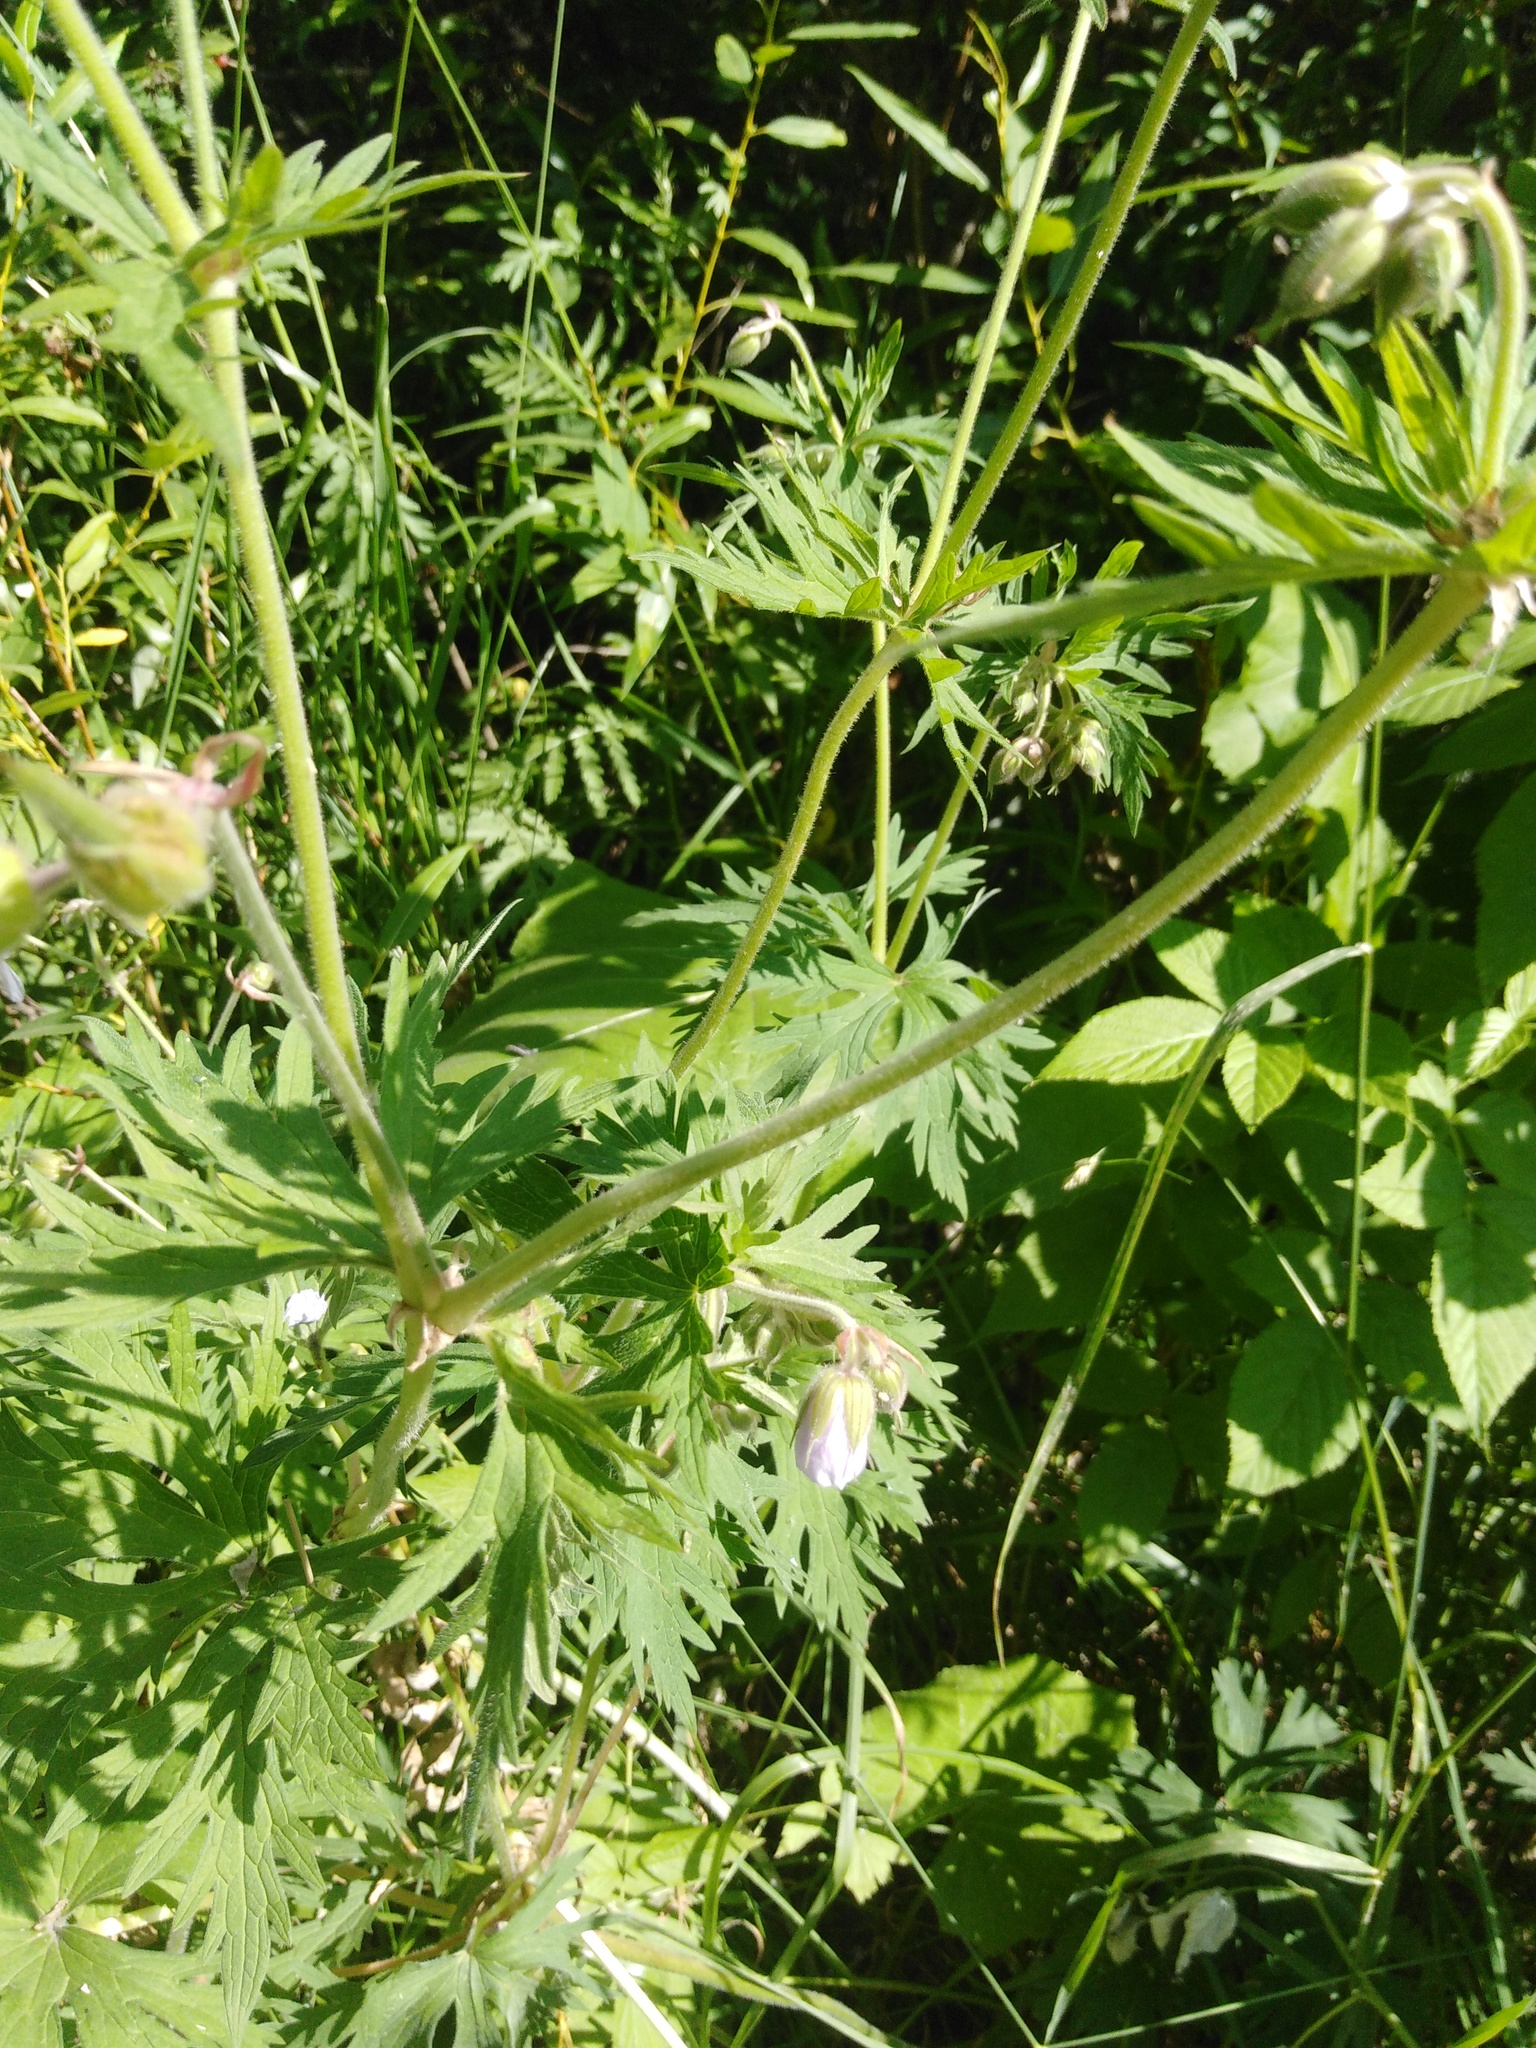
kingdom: Plantae
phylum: Tracheophyta
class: Magnoliopsida
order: Geraniales
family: Geraniaceae
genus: Geranium
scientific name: Geranium pratense
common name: Meadow crane's-bill
